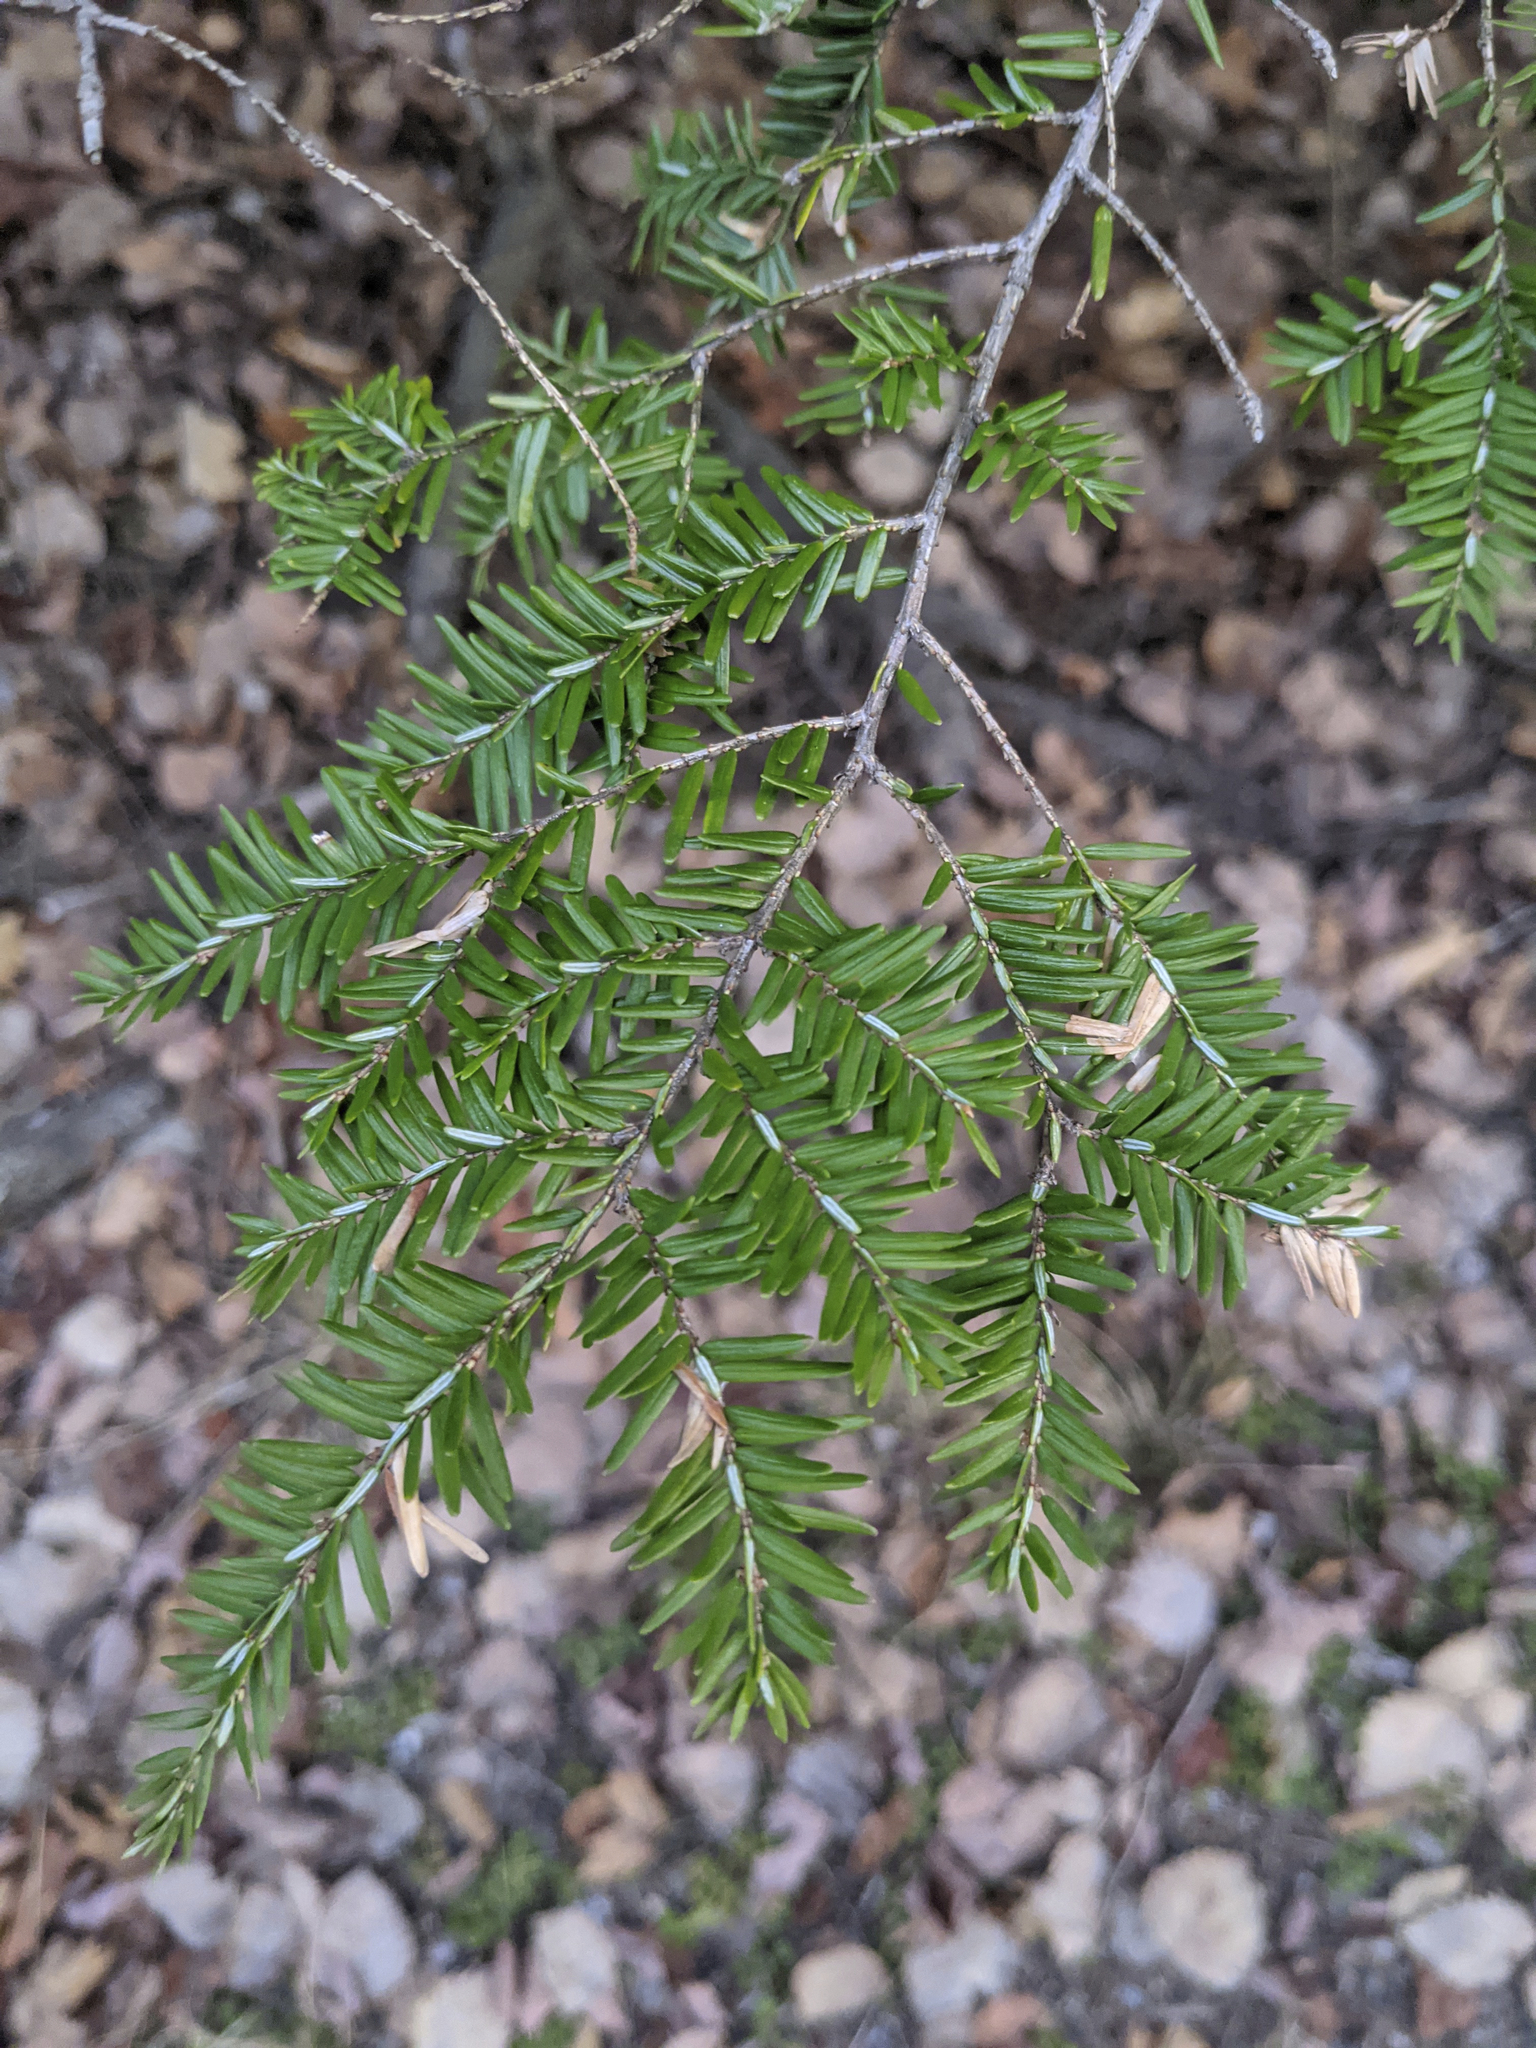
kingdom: Plantae
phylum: Tracheophyta
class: Pinopsida
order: Pinales
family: Pinaceae
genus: Tsuga
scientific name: Tsuga canadensis
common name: Eastern hemlock
